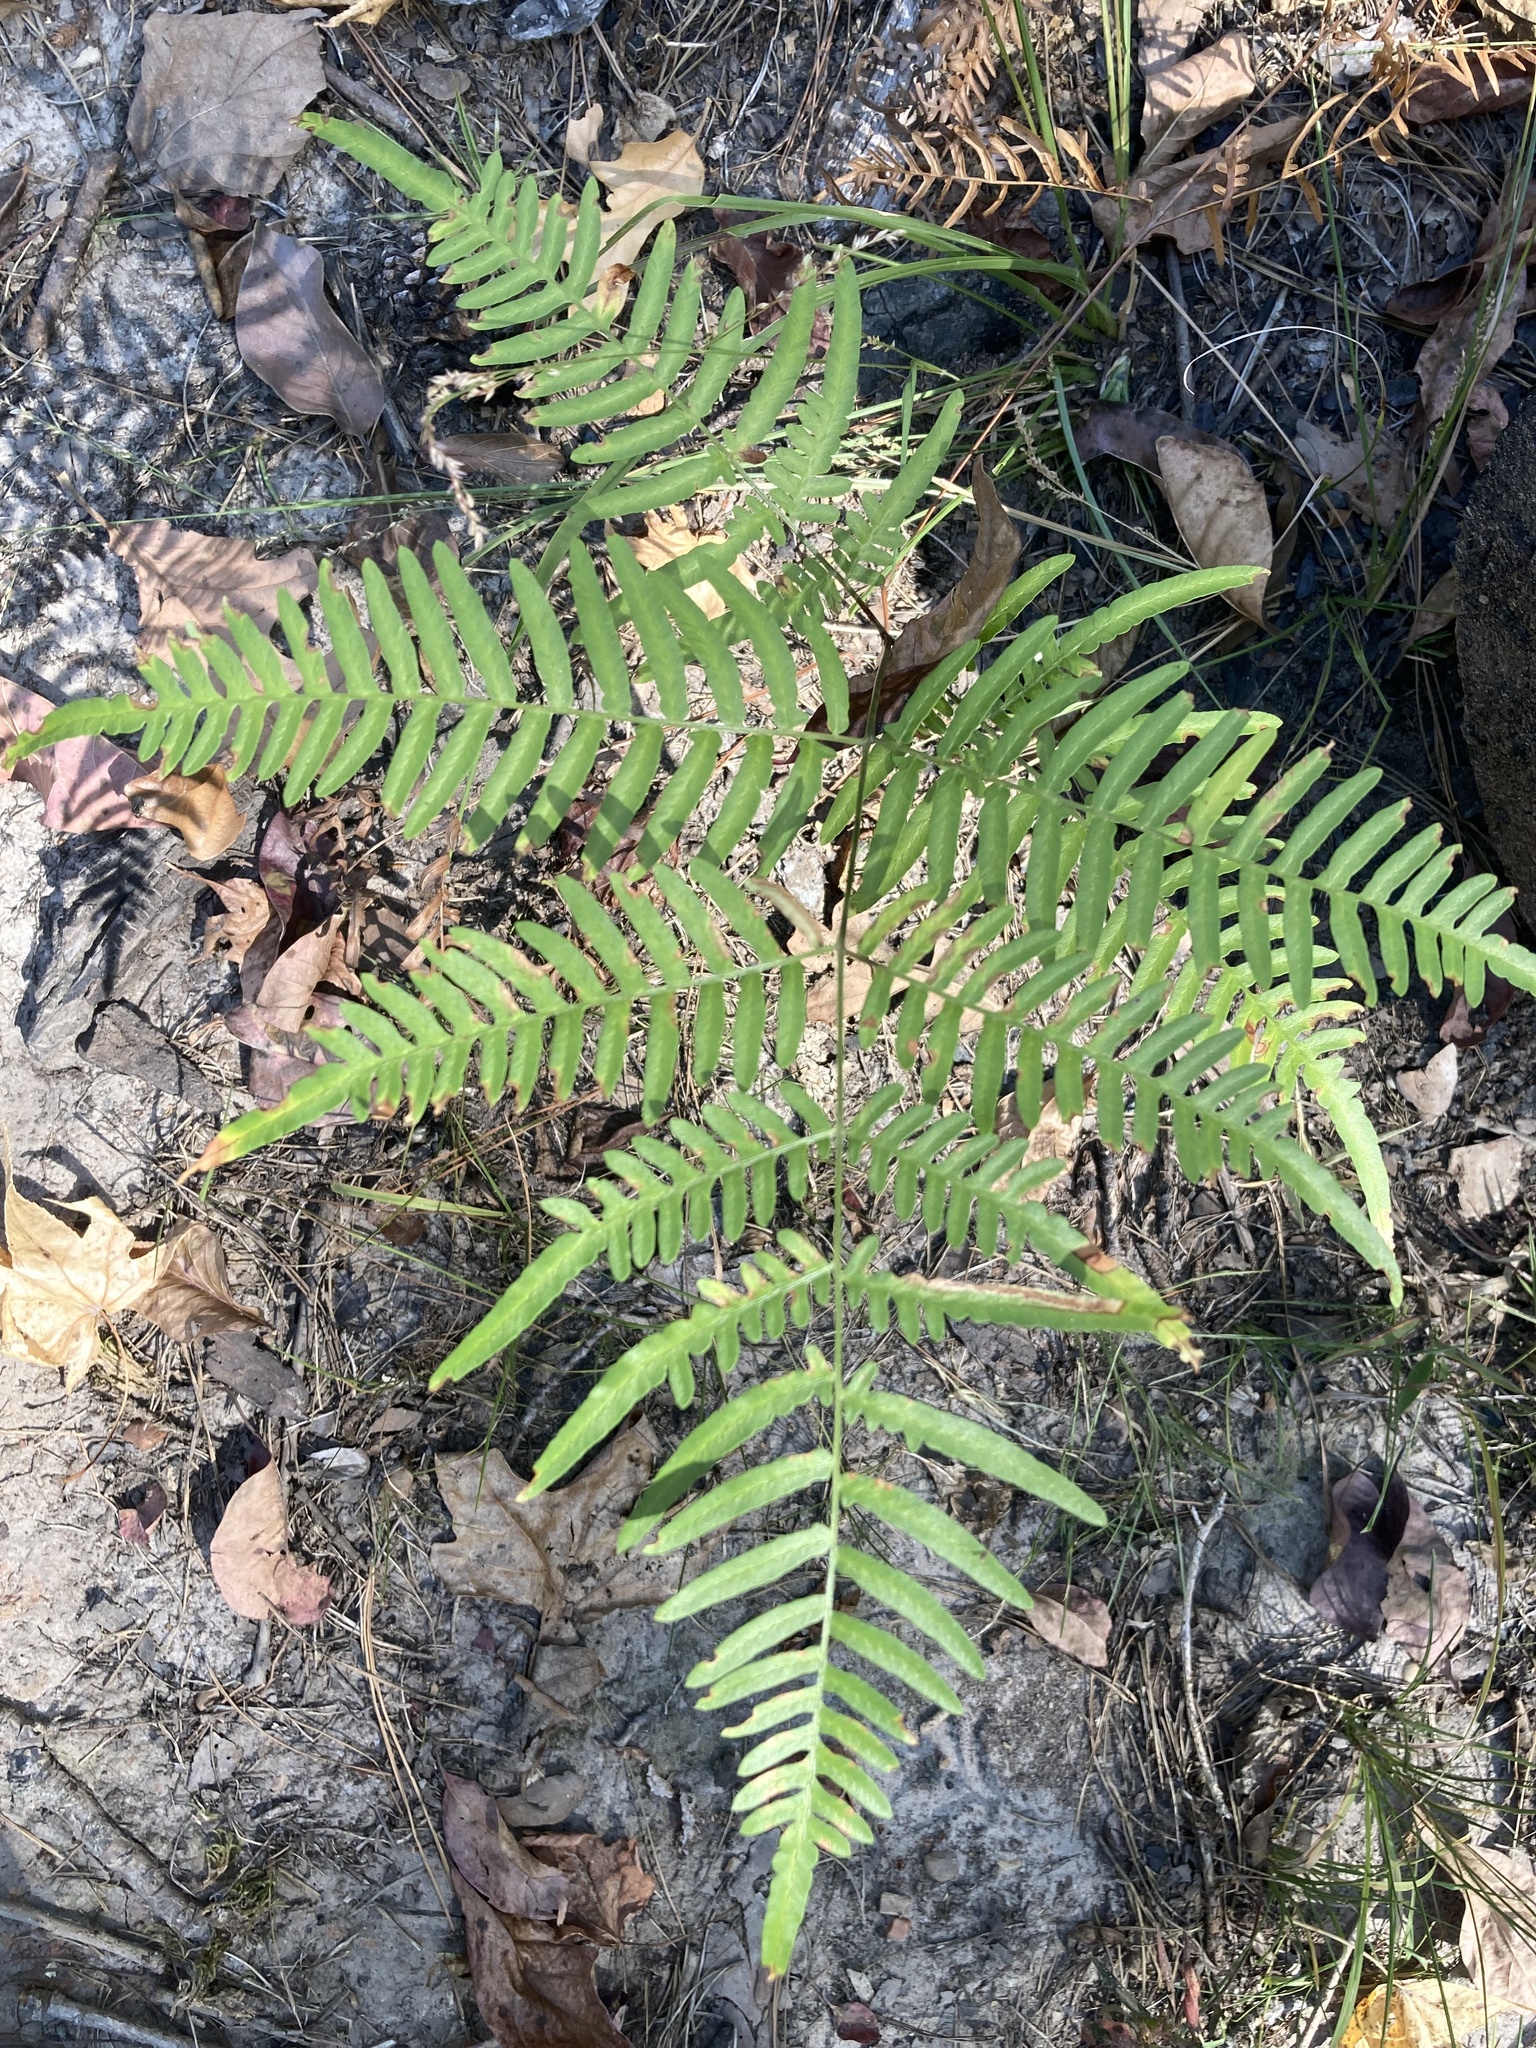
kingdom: Plantae
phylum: Tracheophyta
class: Polypodiopsida
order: Polypodiales
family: Dennstaedtiaceae
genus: Pteridium
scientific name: Pteridium aquilinum
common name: Bracken
